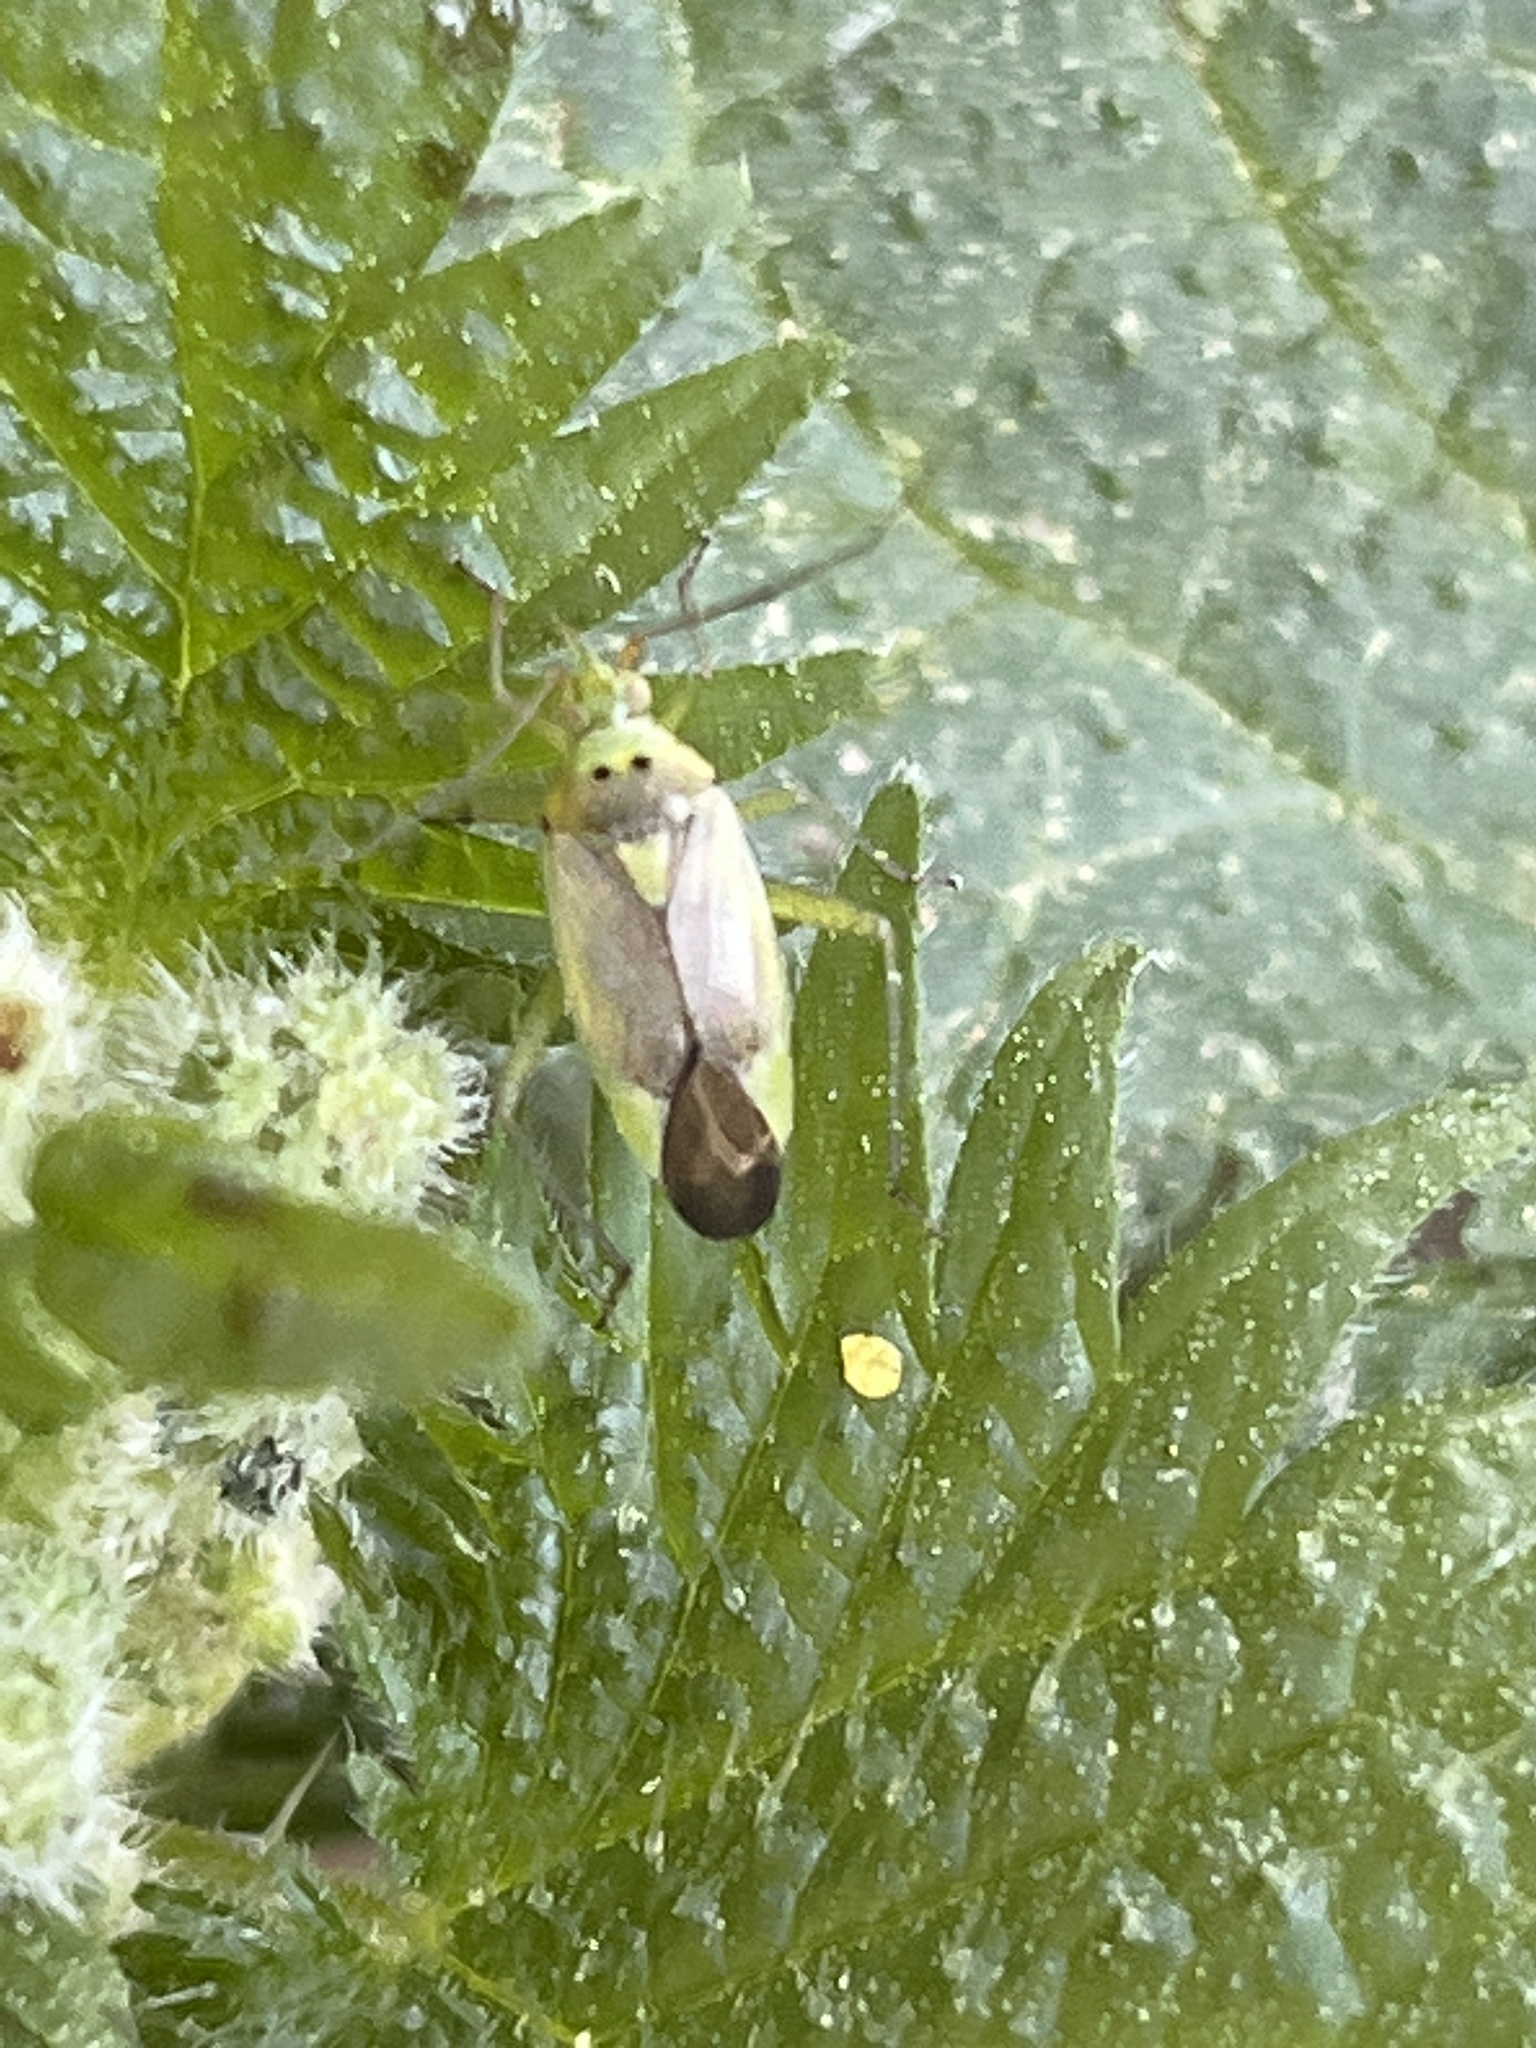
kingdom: Animalia
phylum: Arthropoda
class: Insecta
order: Hemiptera
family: Miridae
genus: Closterotomus
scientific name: Closterotomus trivialis
